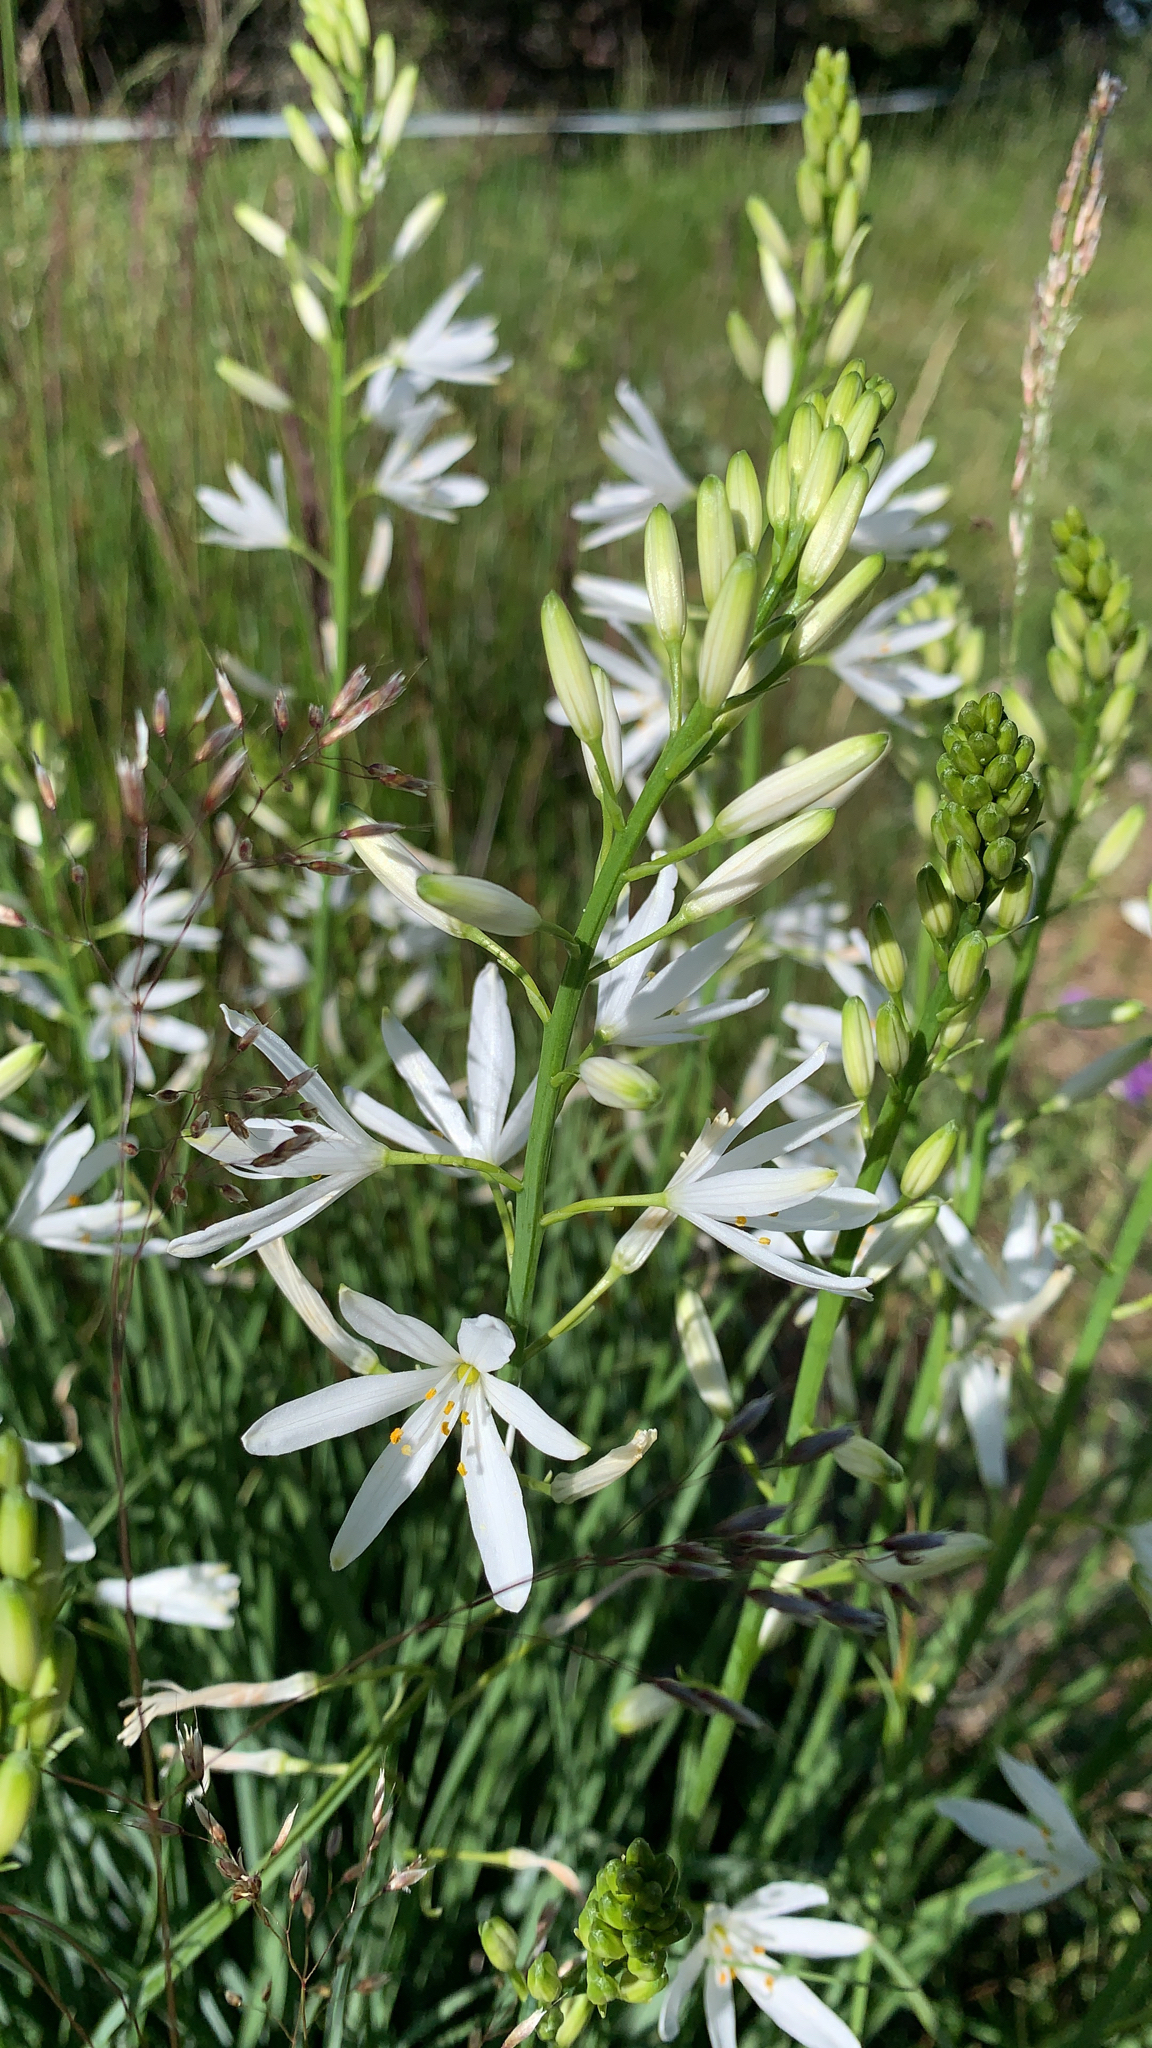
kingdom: Plantae
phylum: Tracheophyta
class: Liliopsida
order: Asparagales
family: Asparagaceae
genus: Anthericum
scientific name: Anthericum liliago
